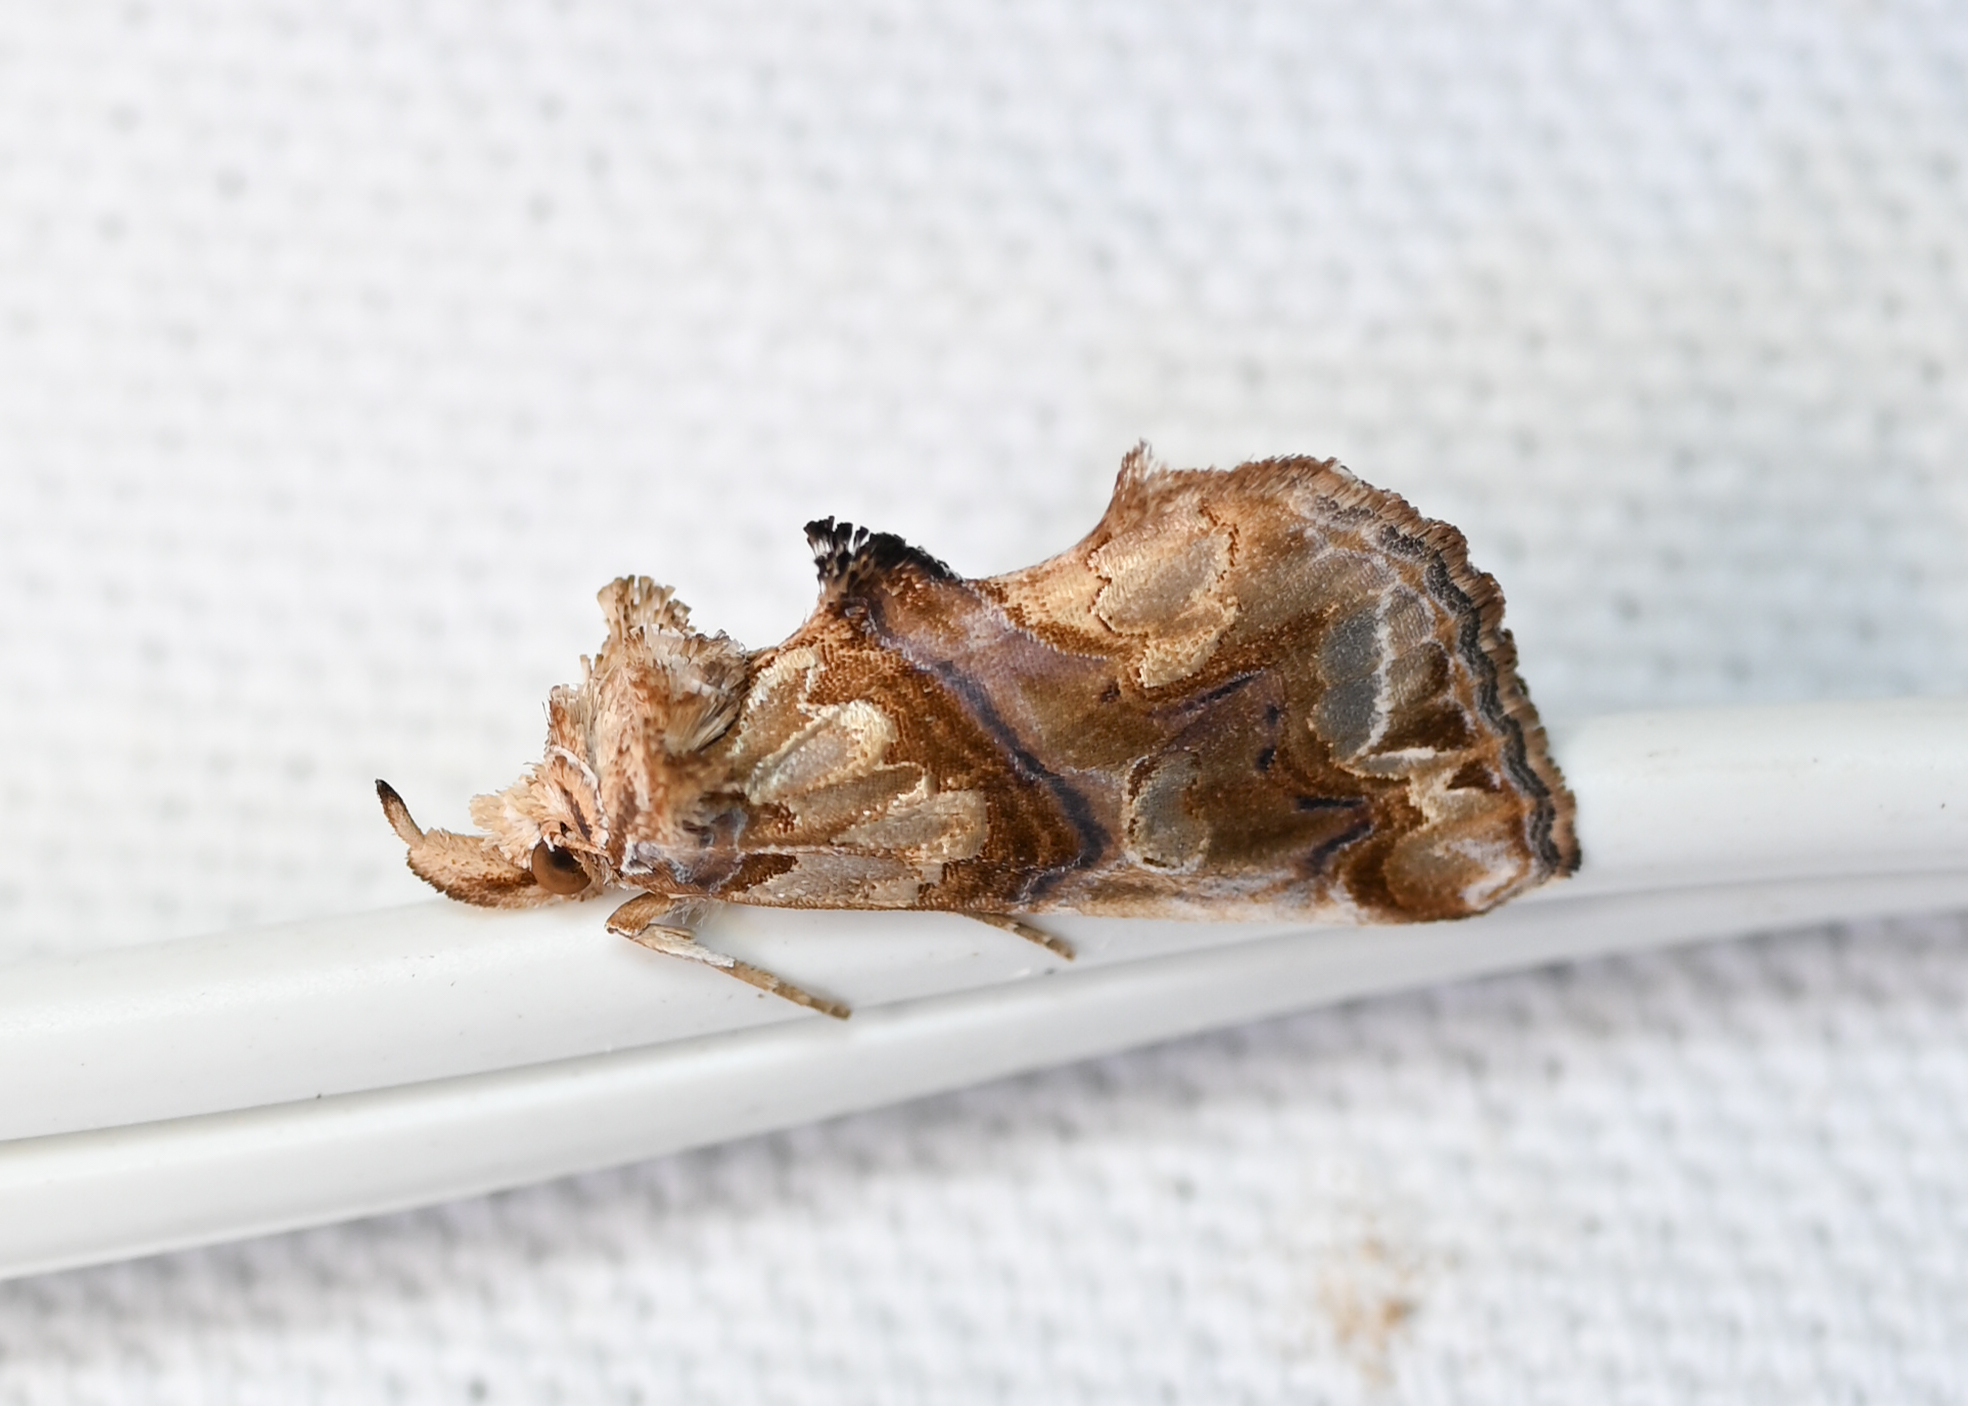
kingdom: Animalia
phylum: Arthropoda
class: Insecta
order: Lepidoptera
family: Erebidae
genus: Plusiodonta
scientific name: Plusiodonta compressipalpis
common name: Moonseed moth
